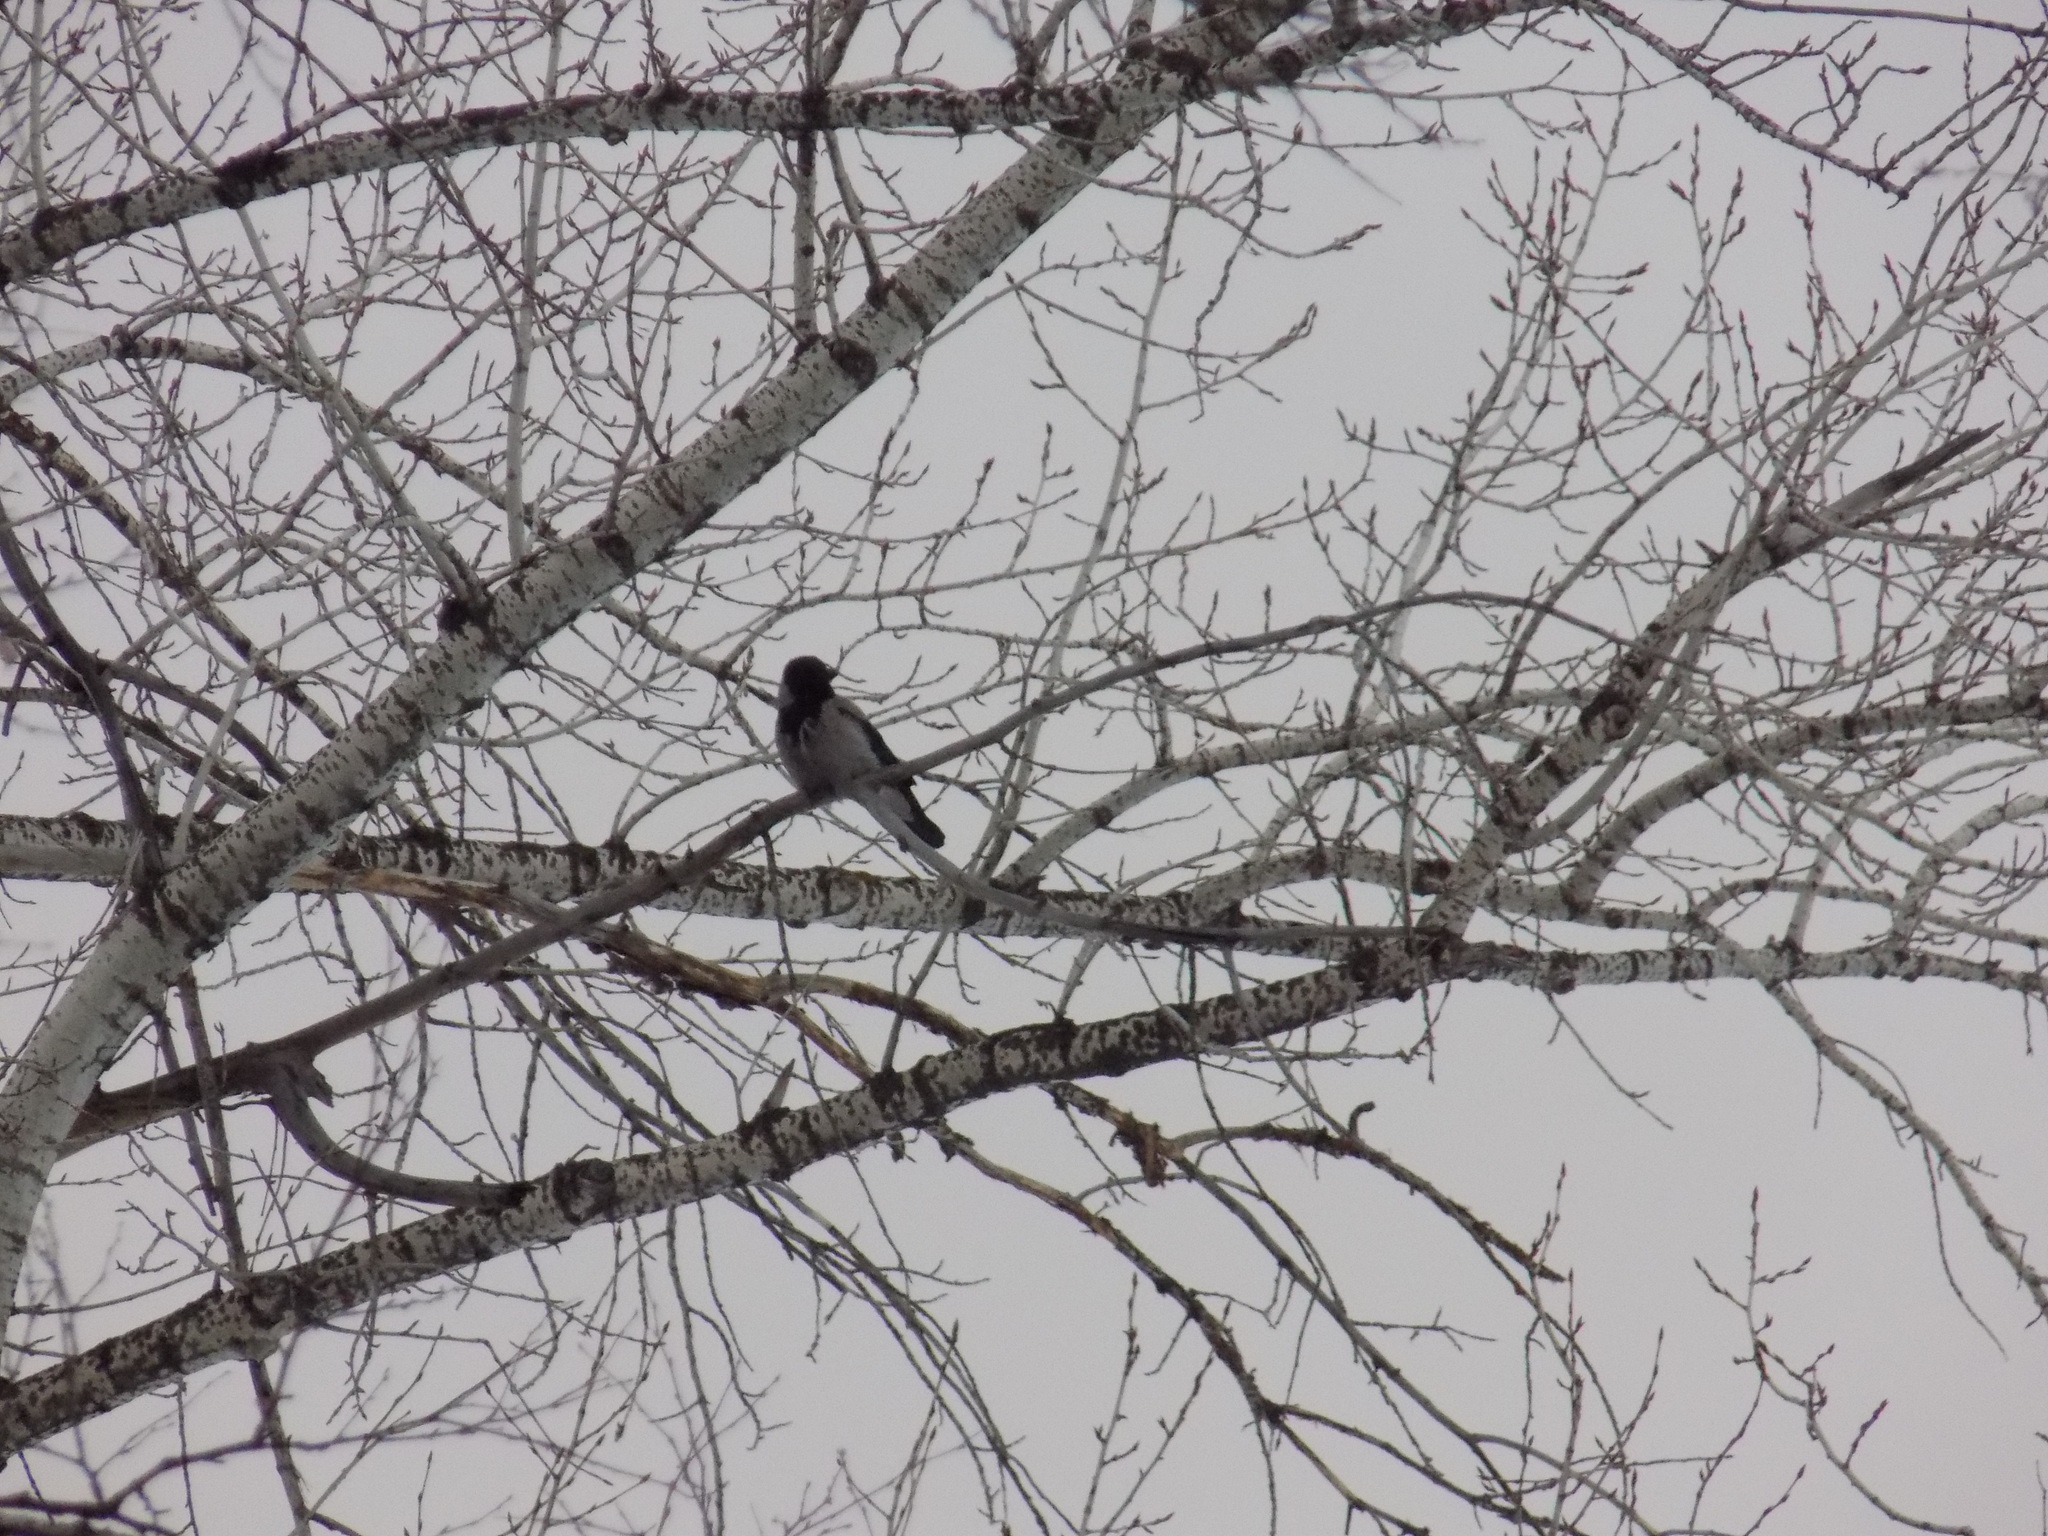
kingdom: Animalia
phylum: Chordata
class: Aves
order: Passeriformes
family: Corvidae
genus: Corvus
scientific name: Corvus cornix
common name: Hooded crow
